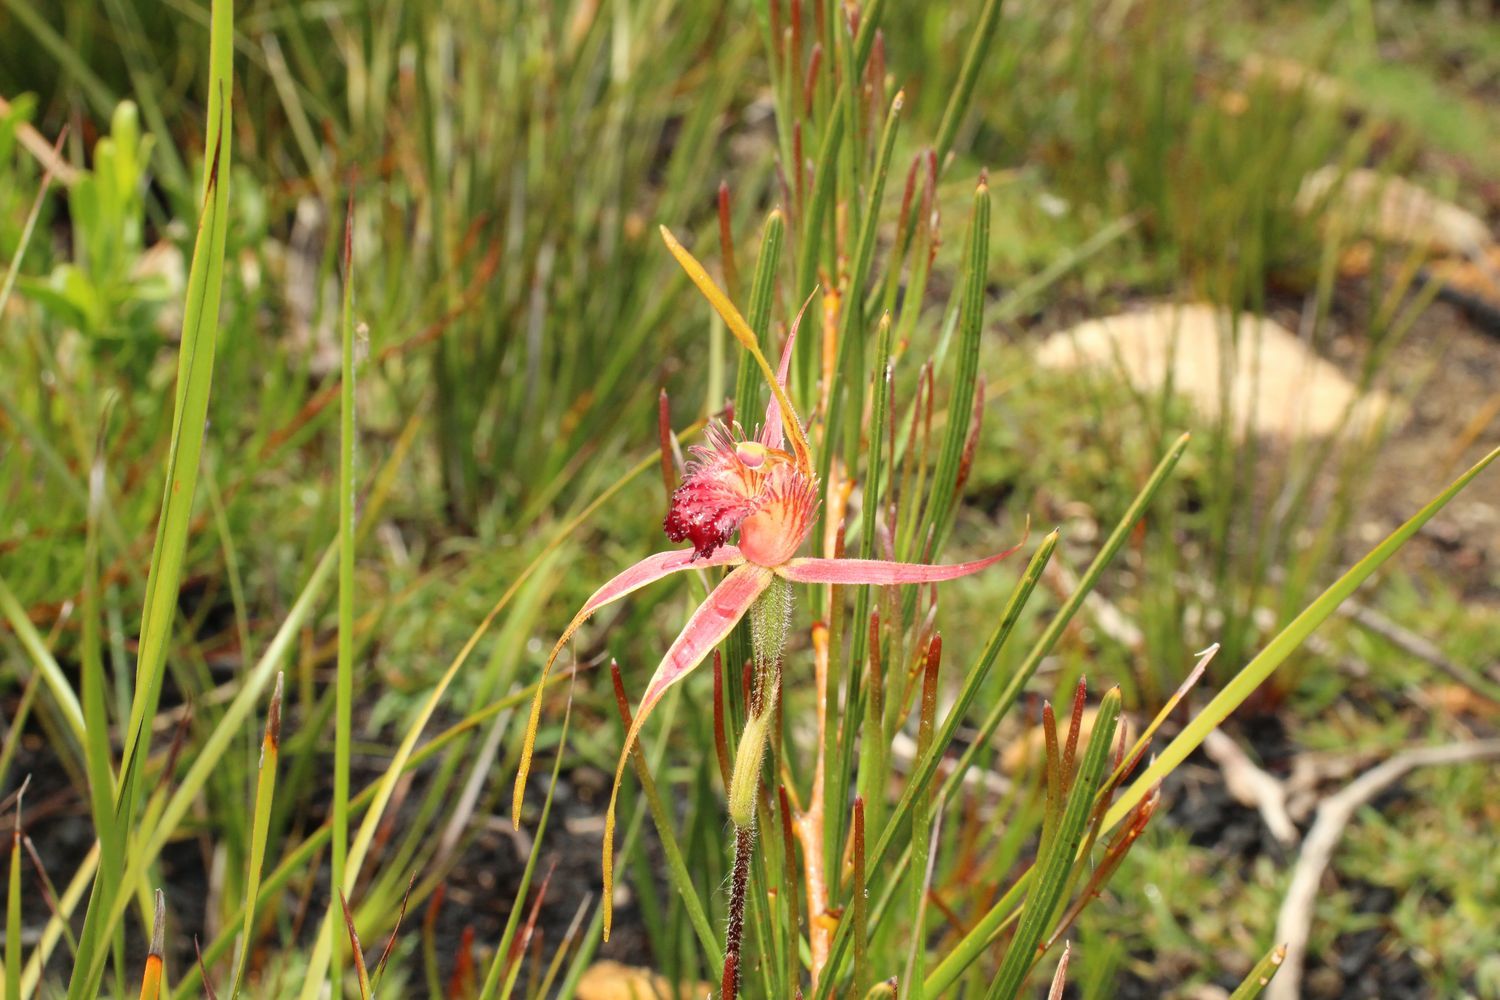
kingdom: Plantae
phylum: Tracheophyta
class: Liliopsida
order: Asparagales
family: Orchidaceae
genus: Caladenia
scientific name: Caladenia pectinata
